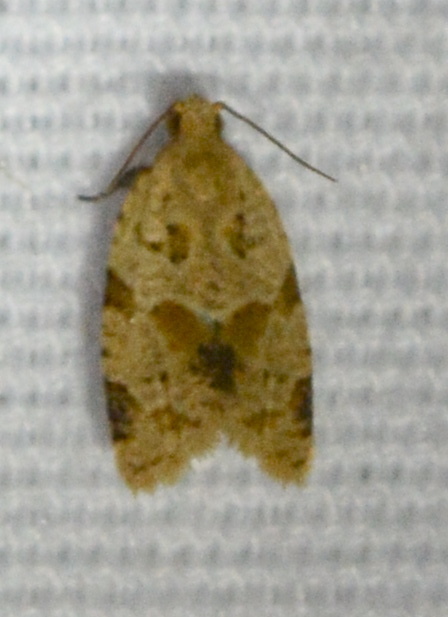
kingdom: Animalia
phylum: Arthropoda
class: Insecta
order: Lepidoptera
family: Tortricidae
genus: Clepsis
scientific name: Clepsis peritana
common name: Garden tortrix
